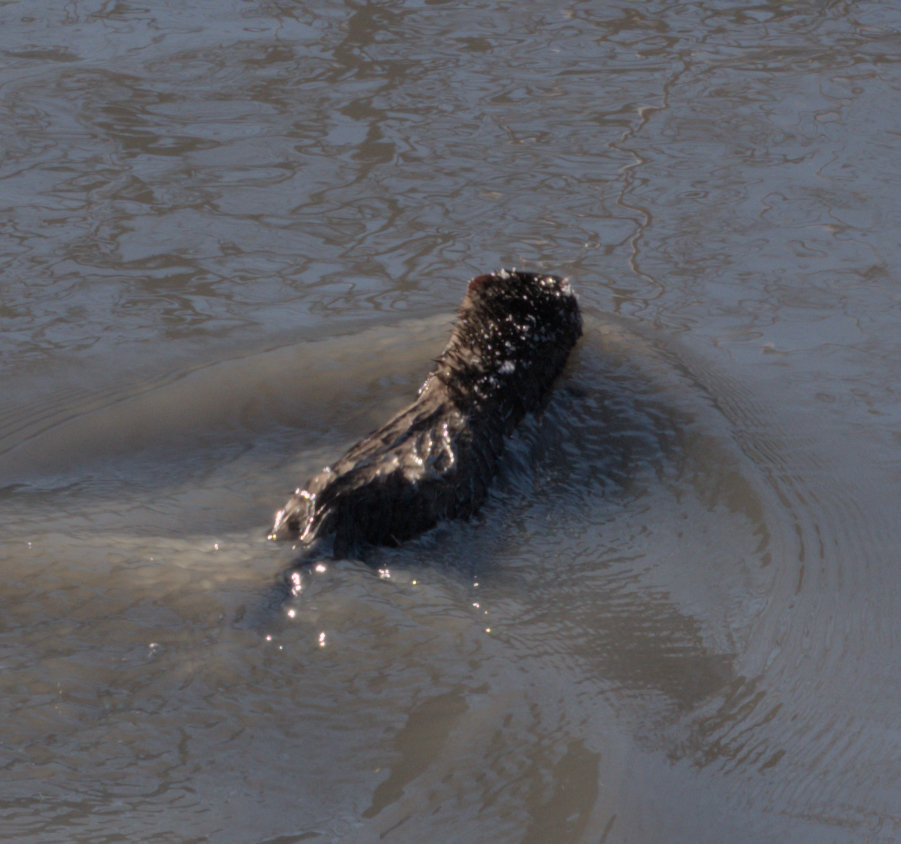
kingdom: Animalia
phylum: Chordata
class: Mammalia
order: Carnivora
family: Mustelidae
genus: Mustela
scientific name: Mustela
